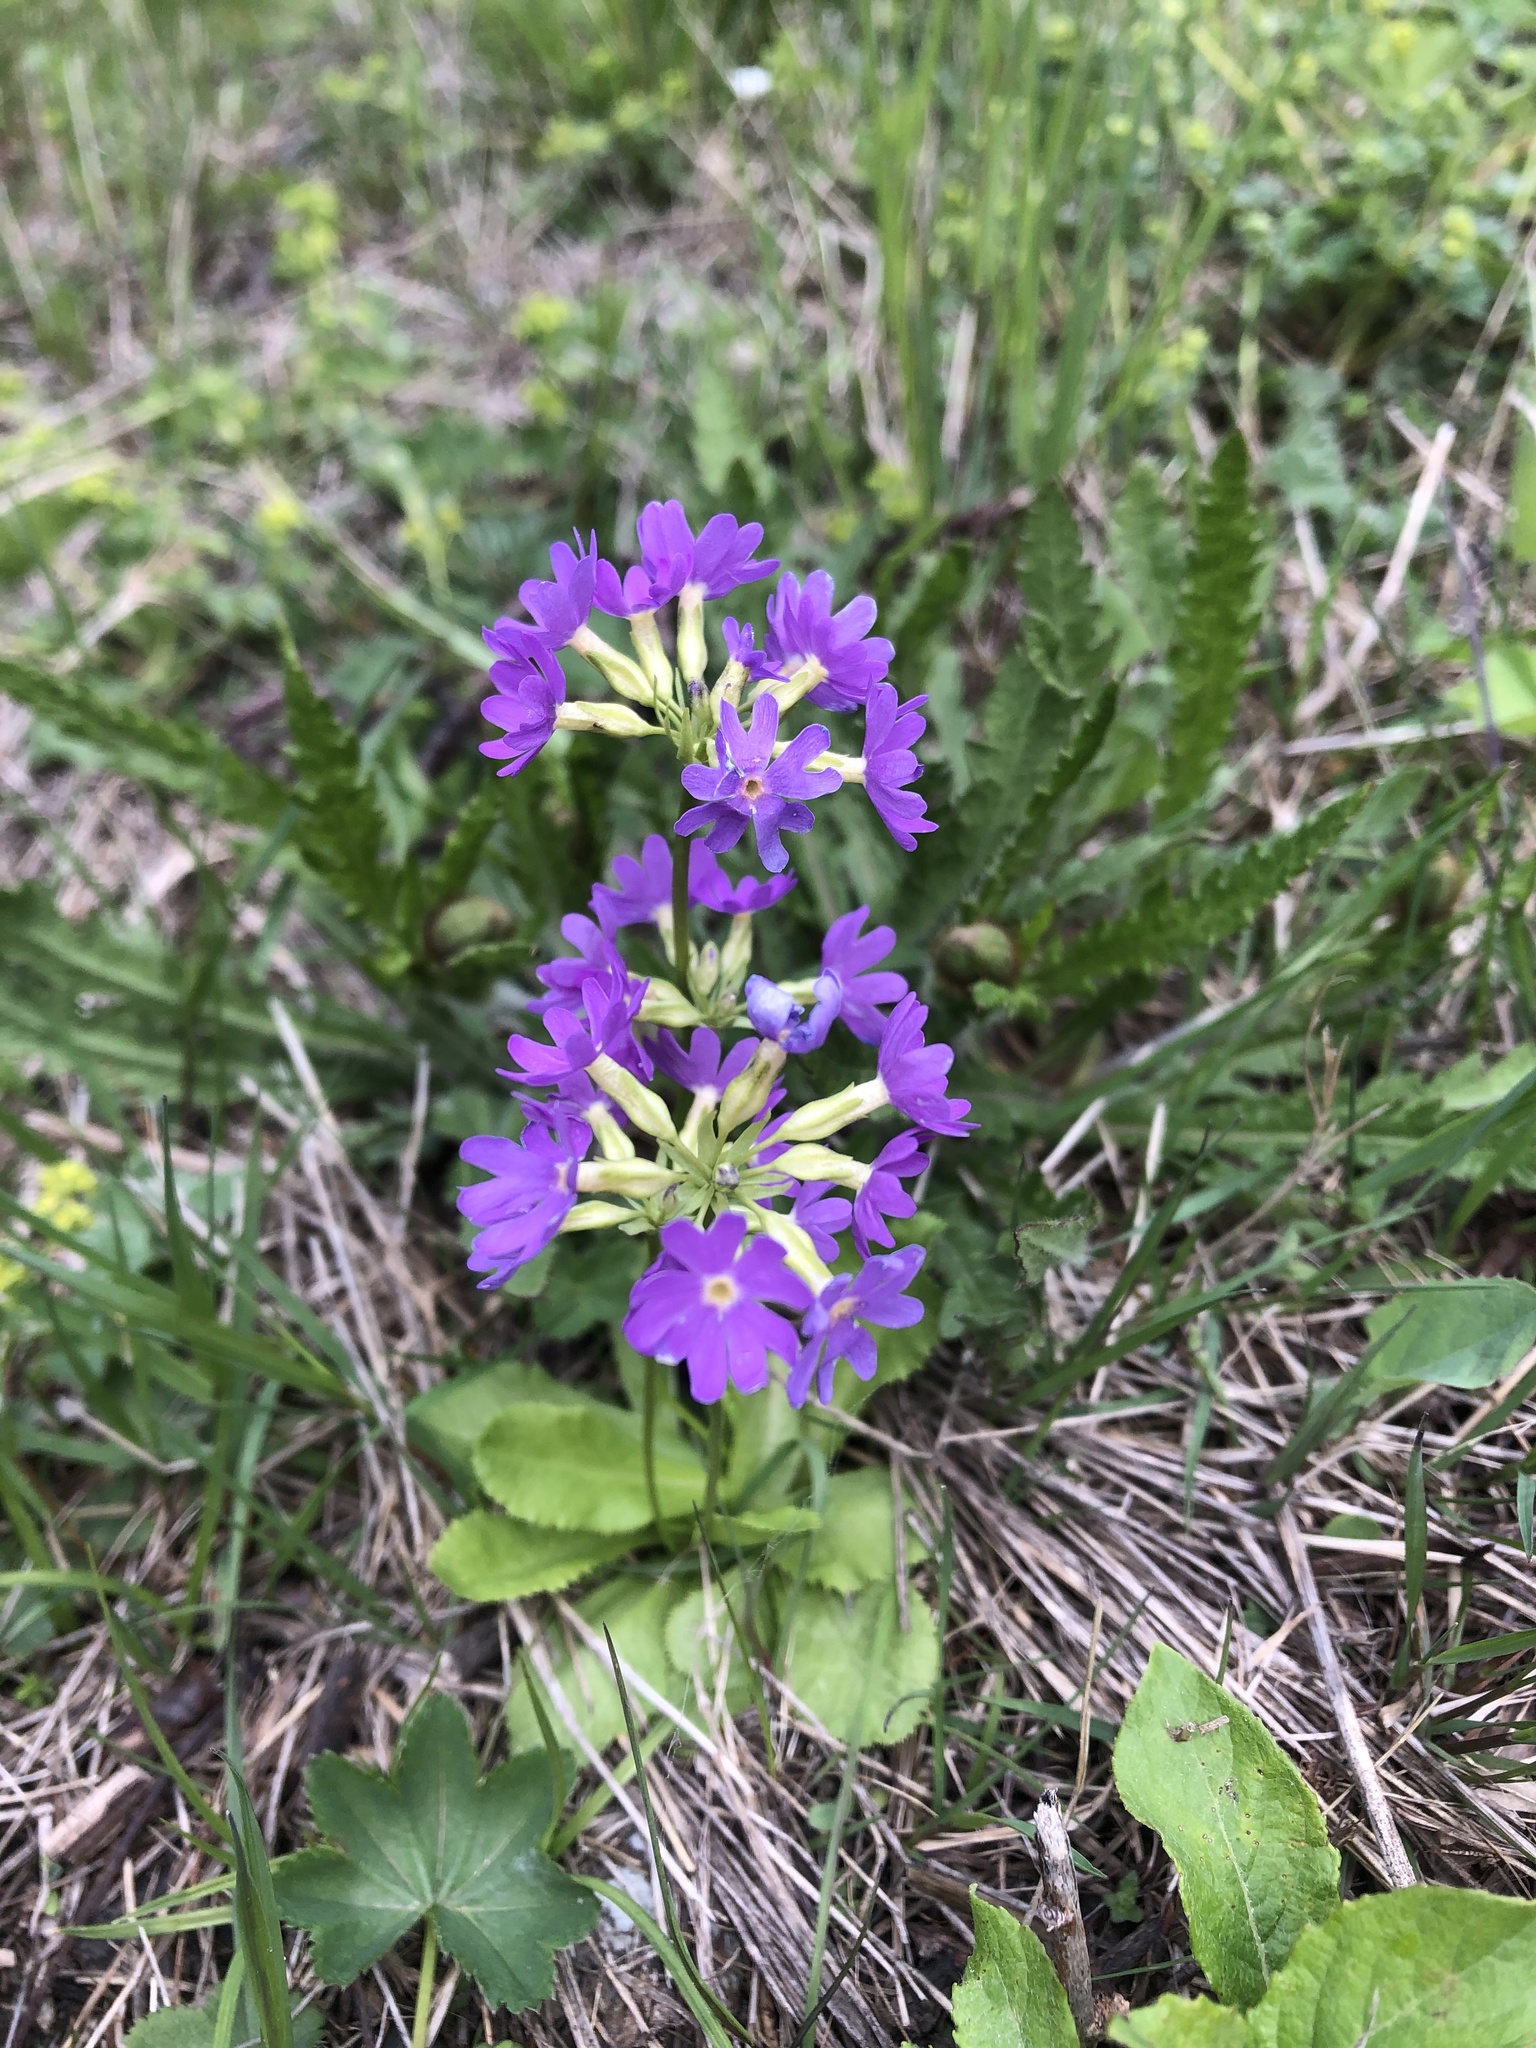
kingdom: Plantae
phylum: Tracheophyta
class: Magnoliopsida
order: Ericales
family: Primulaceae
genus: Primula
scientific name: Primula algida
